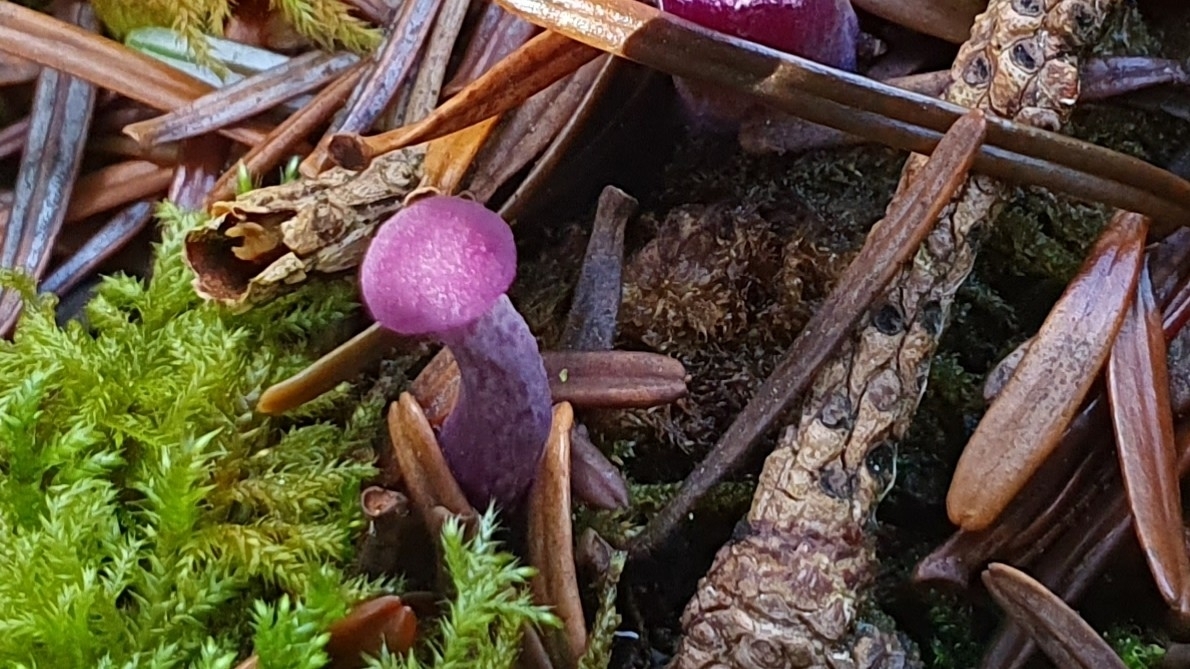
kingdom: Fungi
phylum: Basidiomycota
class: Agaricomycetes
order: Agaricales
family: Hydnangiaceae
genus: Laccaria
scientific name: Laccaria amethystina
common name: Amethyst deceiver
